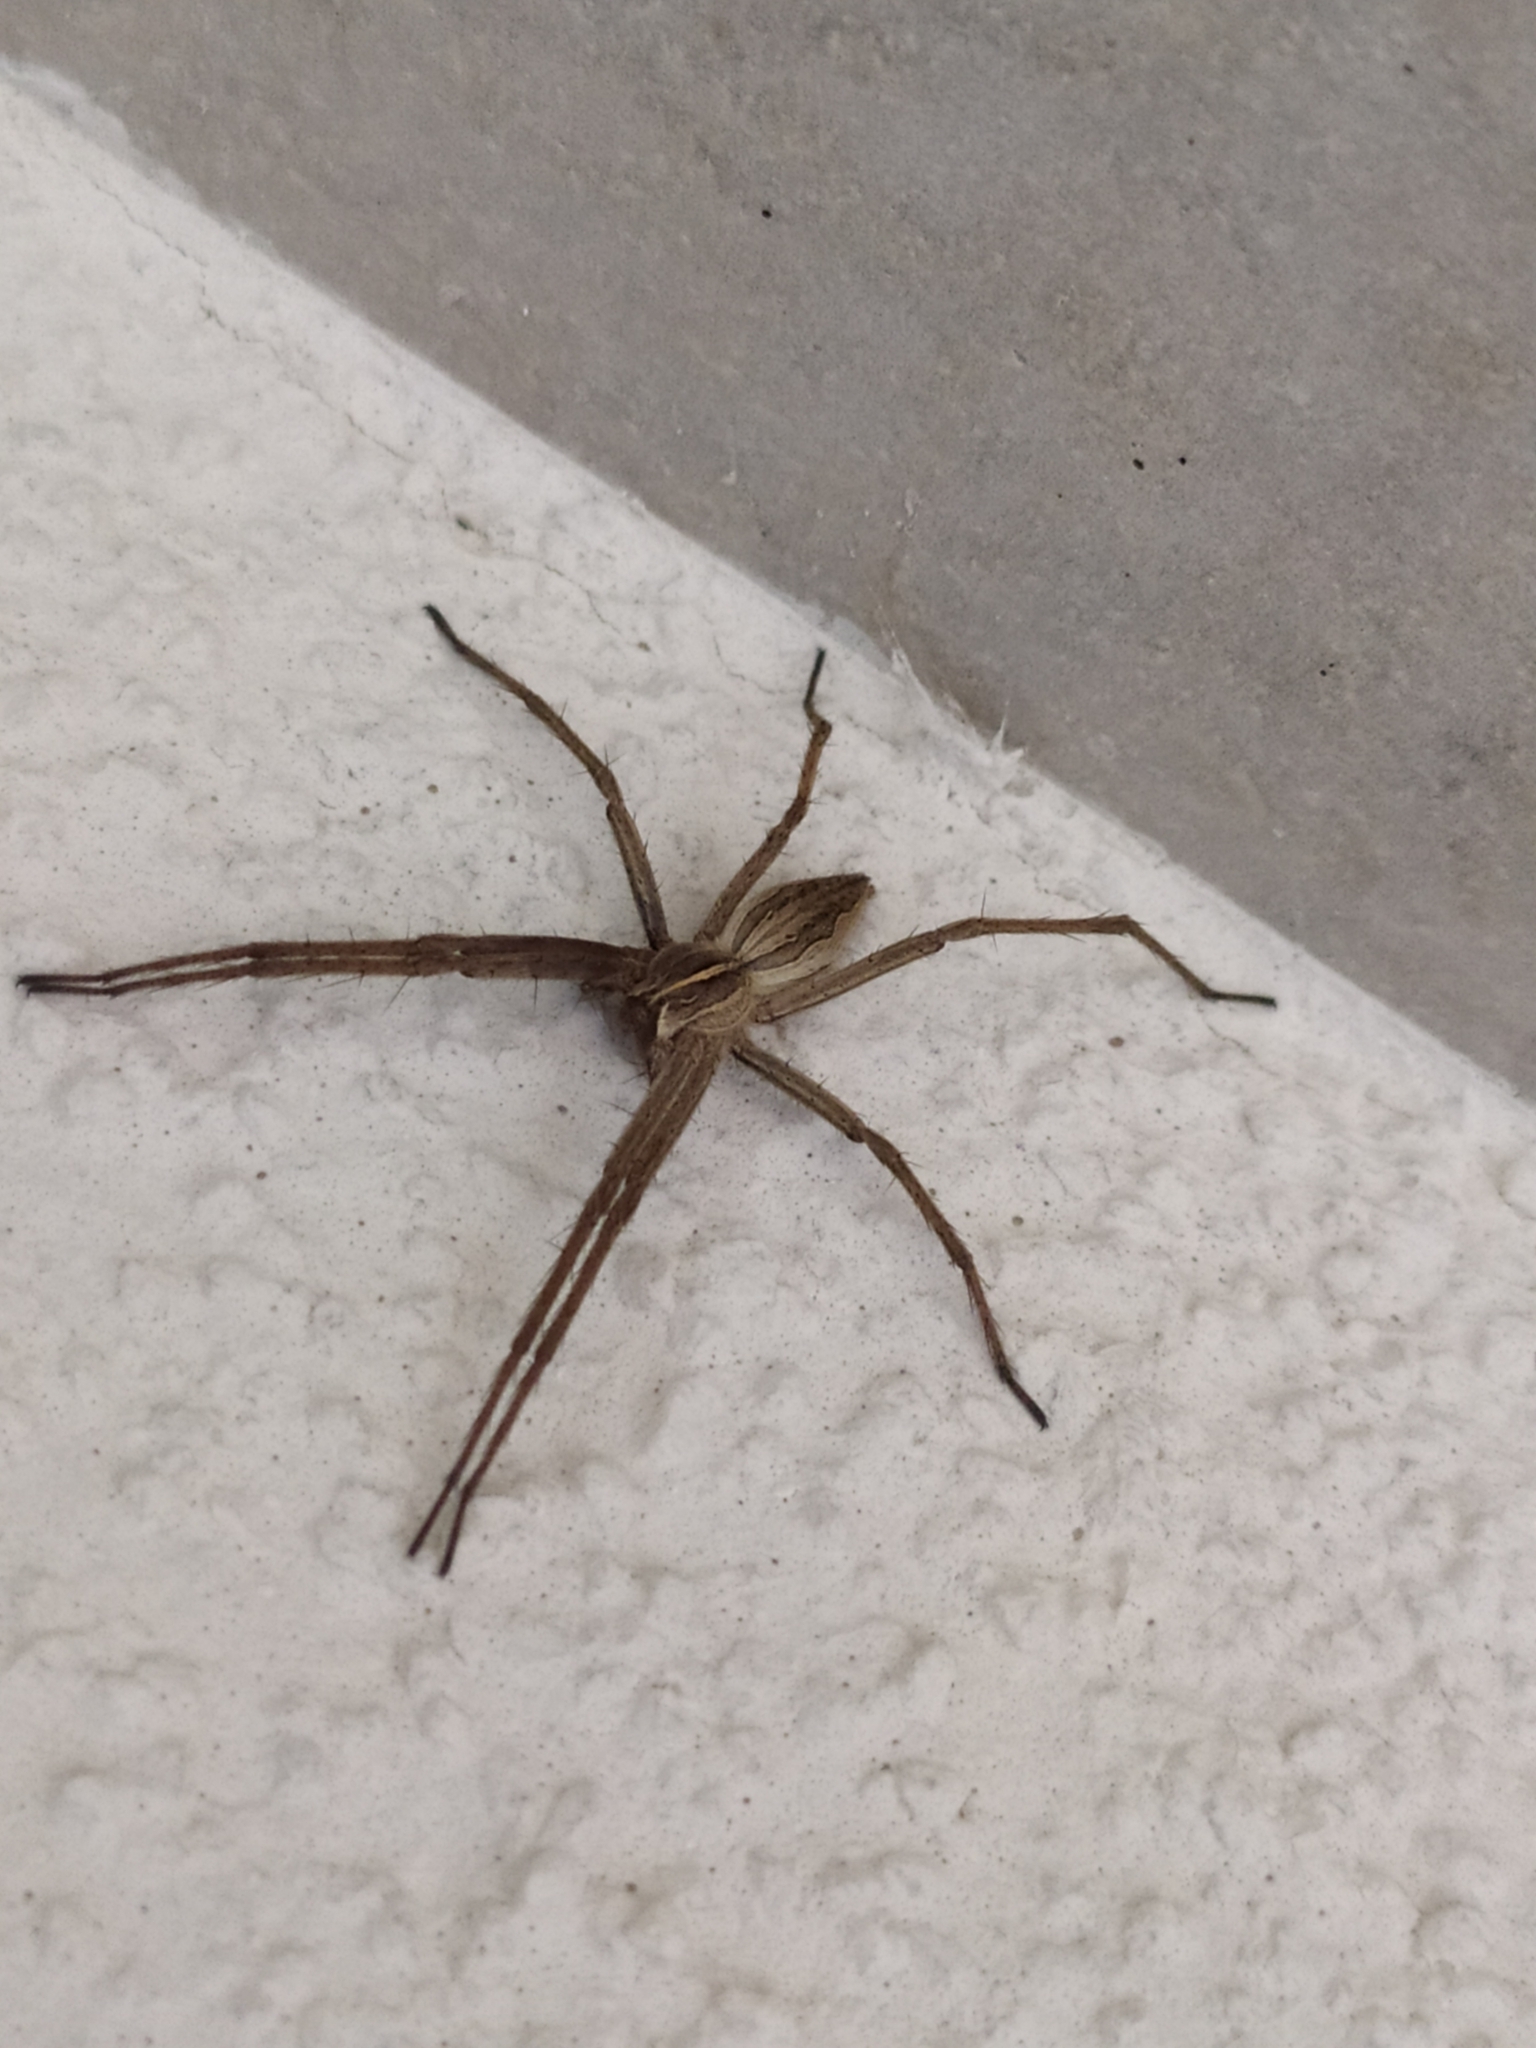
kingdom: Animalia
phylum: Arthropoda
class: Arachnida
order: Araneae
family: Pisauridae
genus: Pisaura
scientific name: Pisaura mirabilis
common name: Tent spider
